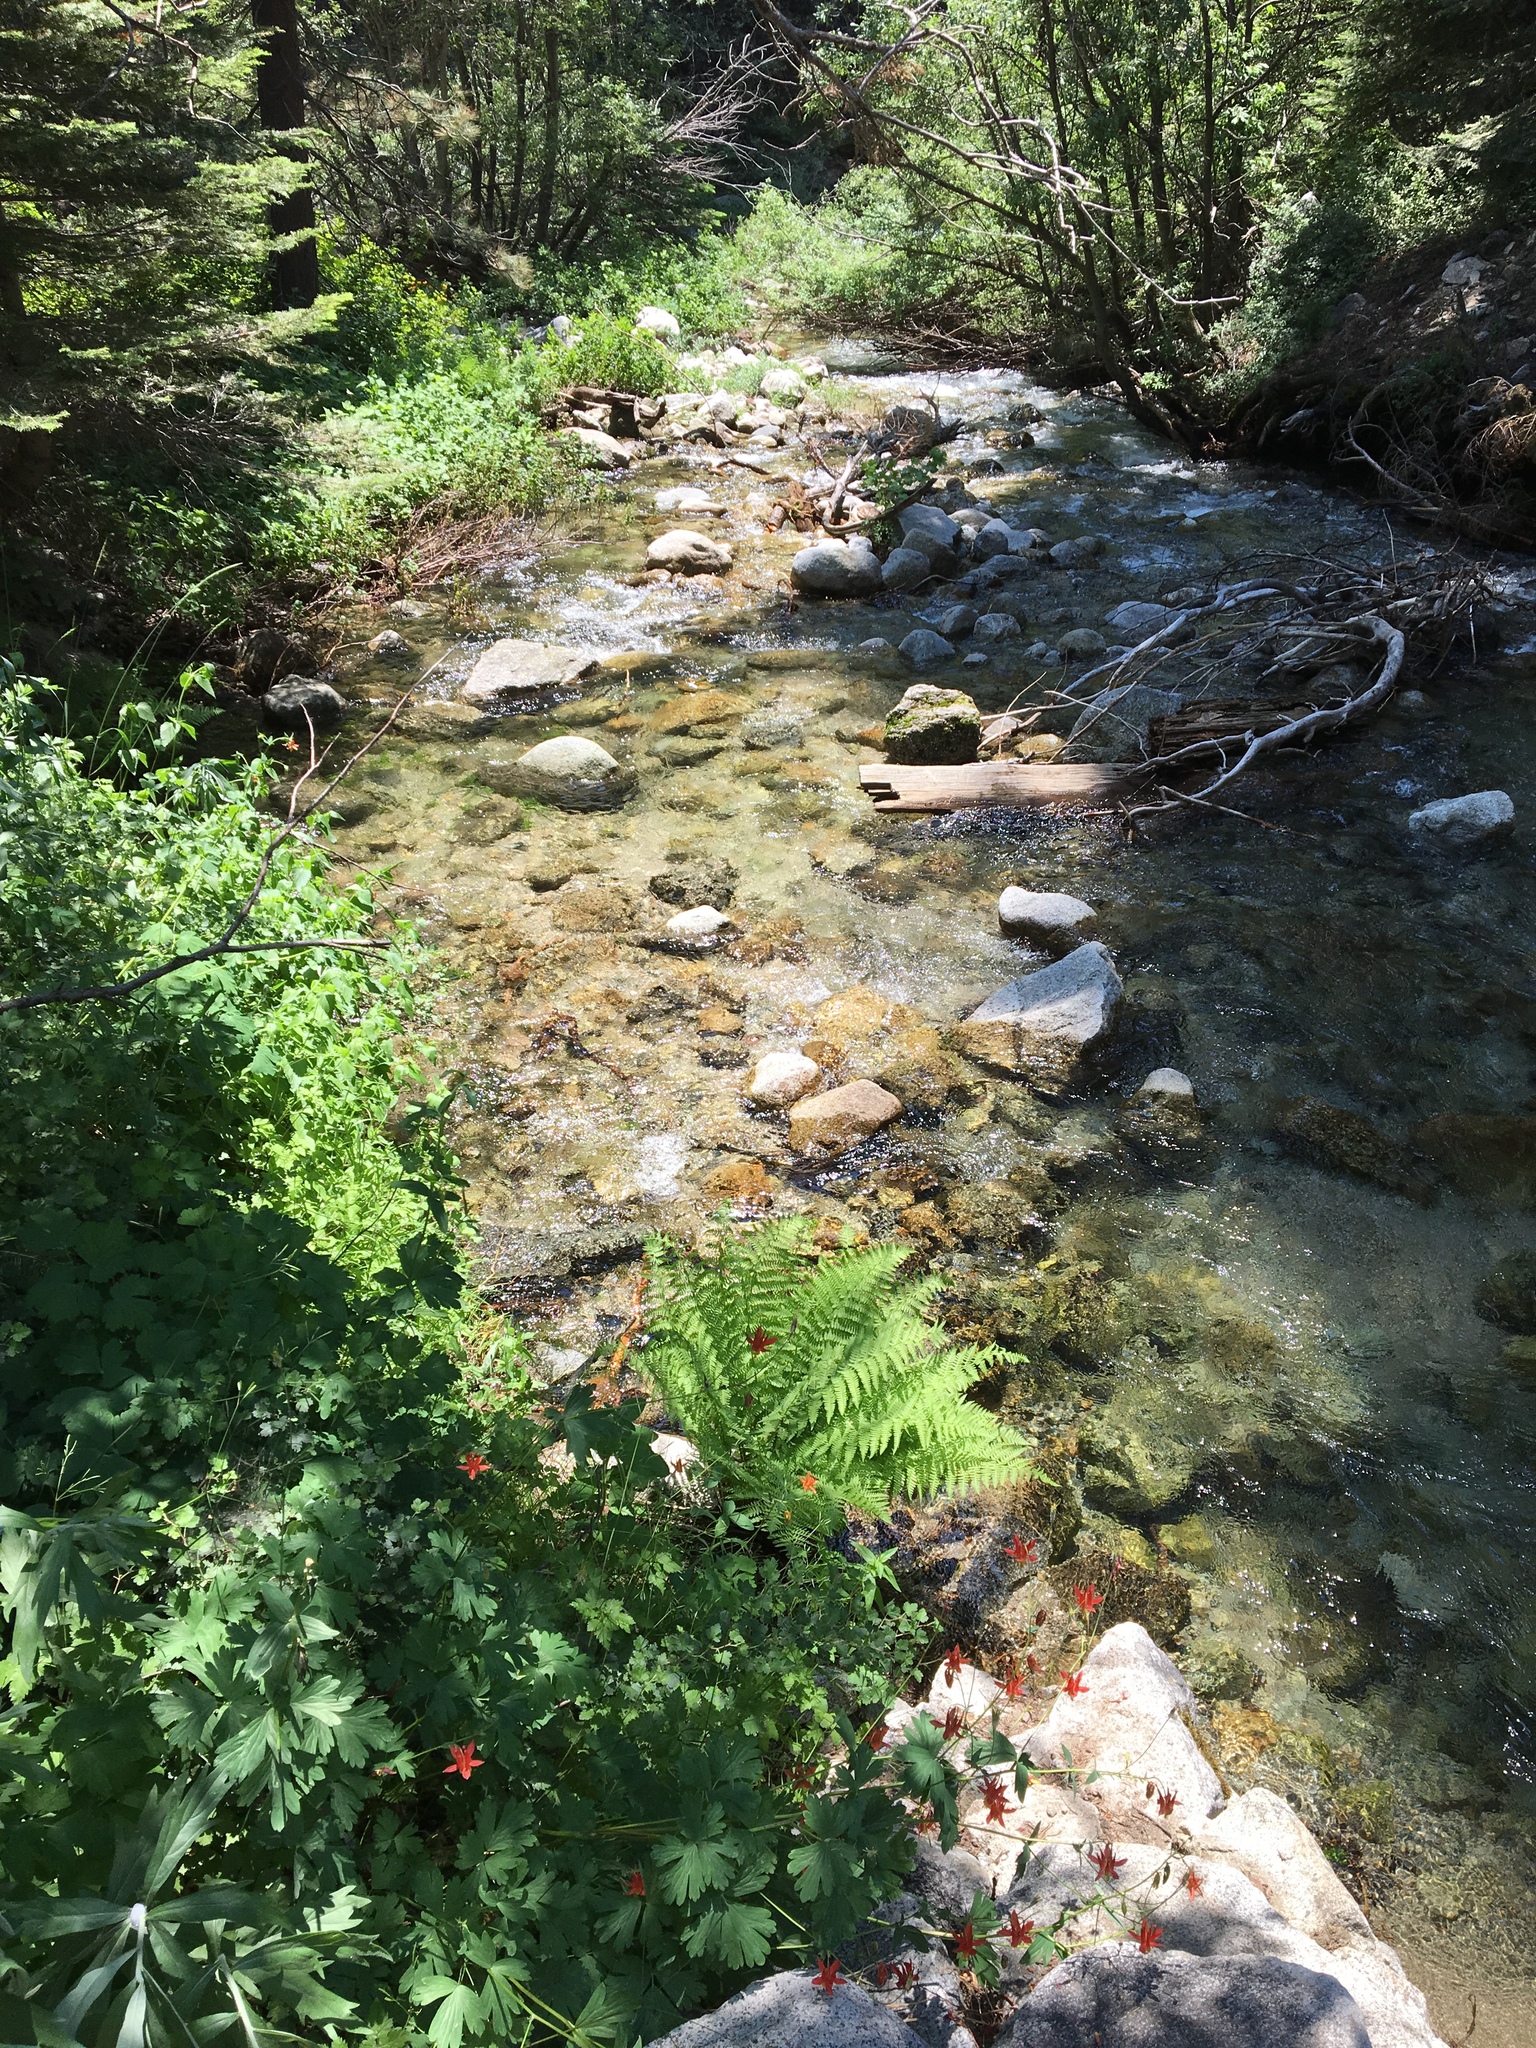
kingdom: Plantae
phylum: Tracheophyta
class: Magnoliopsida
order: Ranunculales
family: Ranunculaceae
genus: Aquilegia
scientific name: Aquilegia formosa
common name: Sitka columbine
